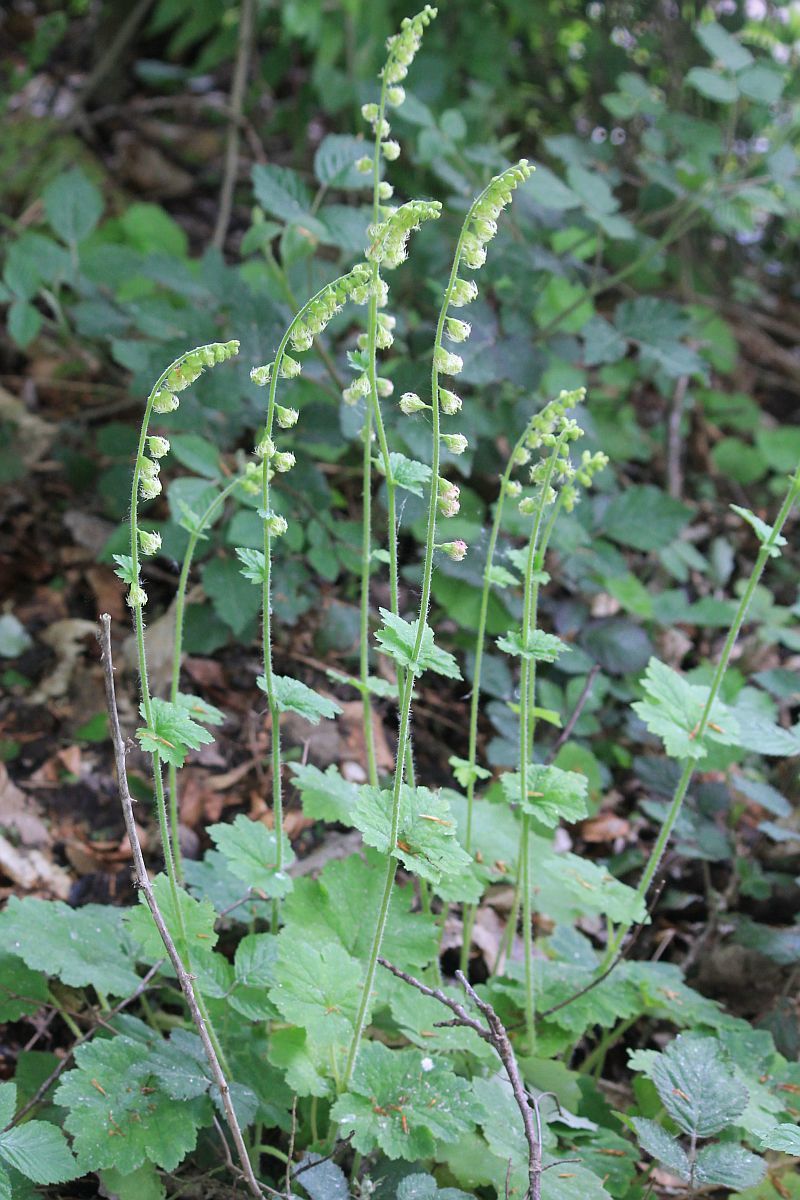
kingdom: Plantae
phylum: Tracheophyta
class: Magnoliopsida
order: Saxifragales
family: Saxifragaceae
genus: Tellima
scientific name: Tellima grandiflora
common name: Fringecups
